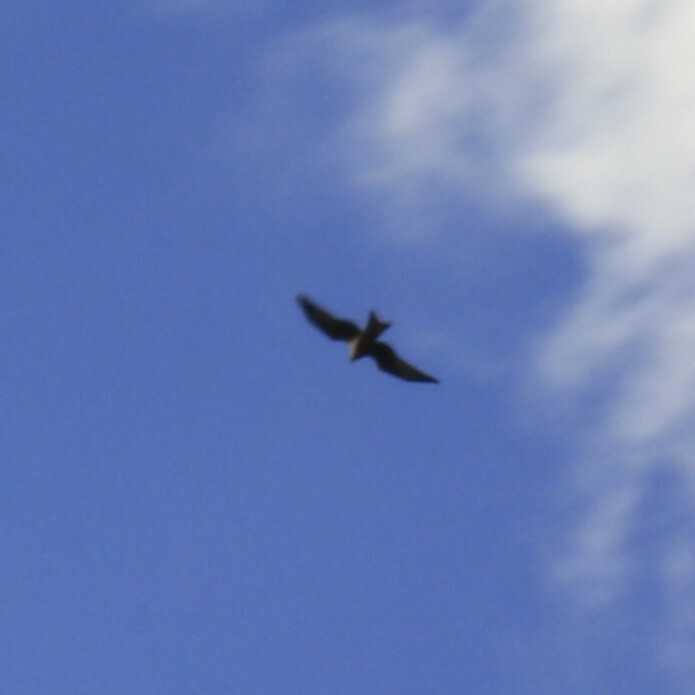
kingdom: Animalia
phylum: Chordata
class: Aves
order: Accipitriformes
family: Accipitridae
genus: Milvus
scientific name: Milvus milvus
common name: Red kite
